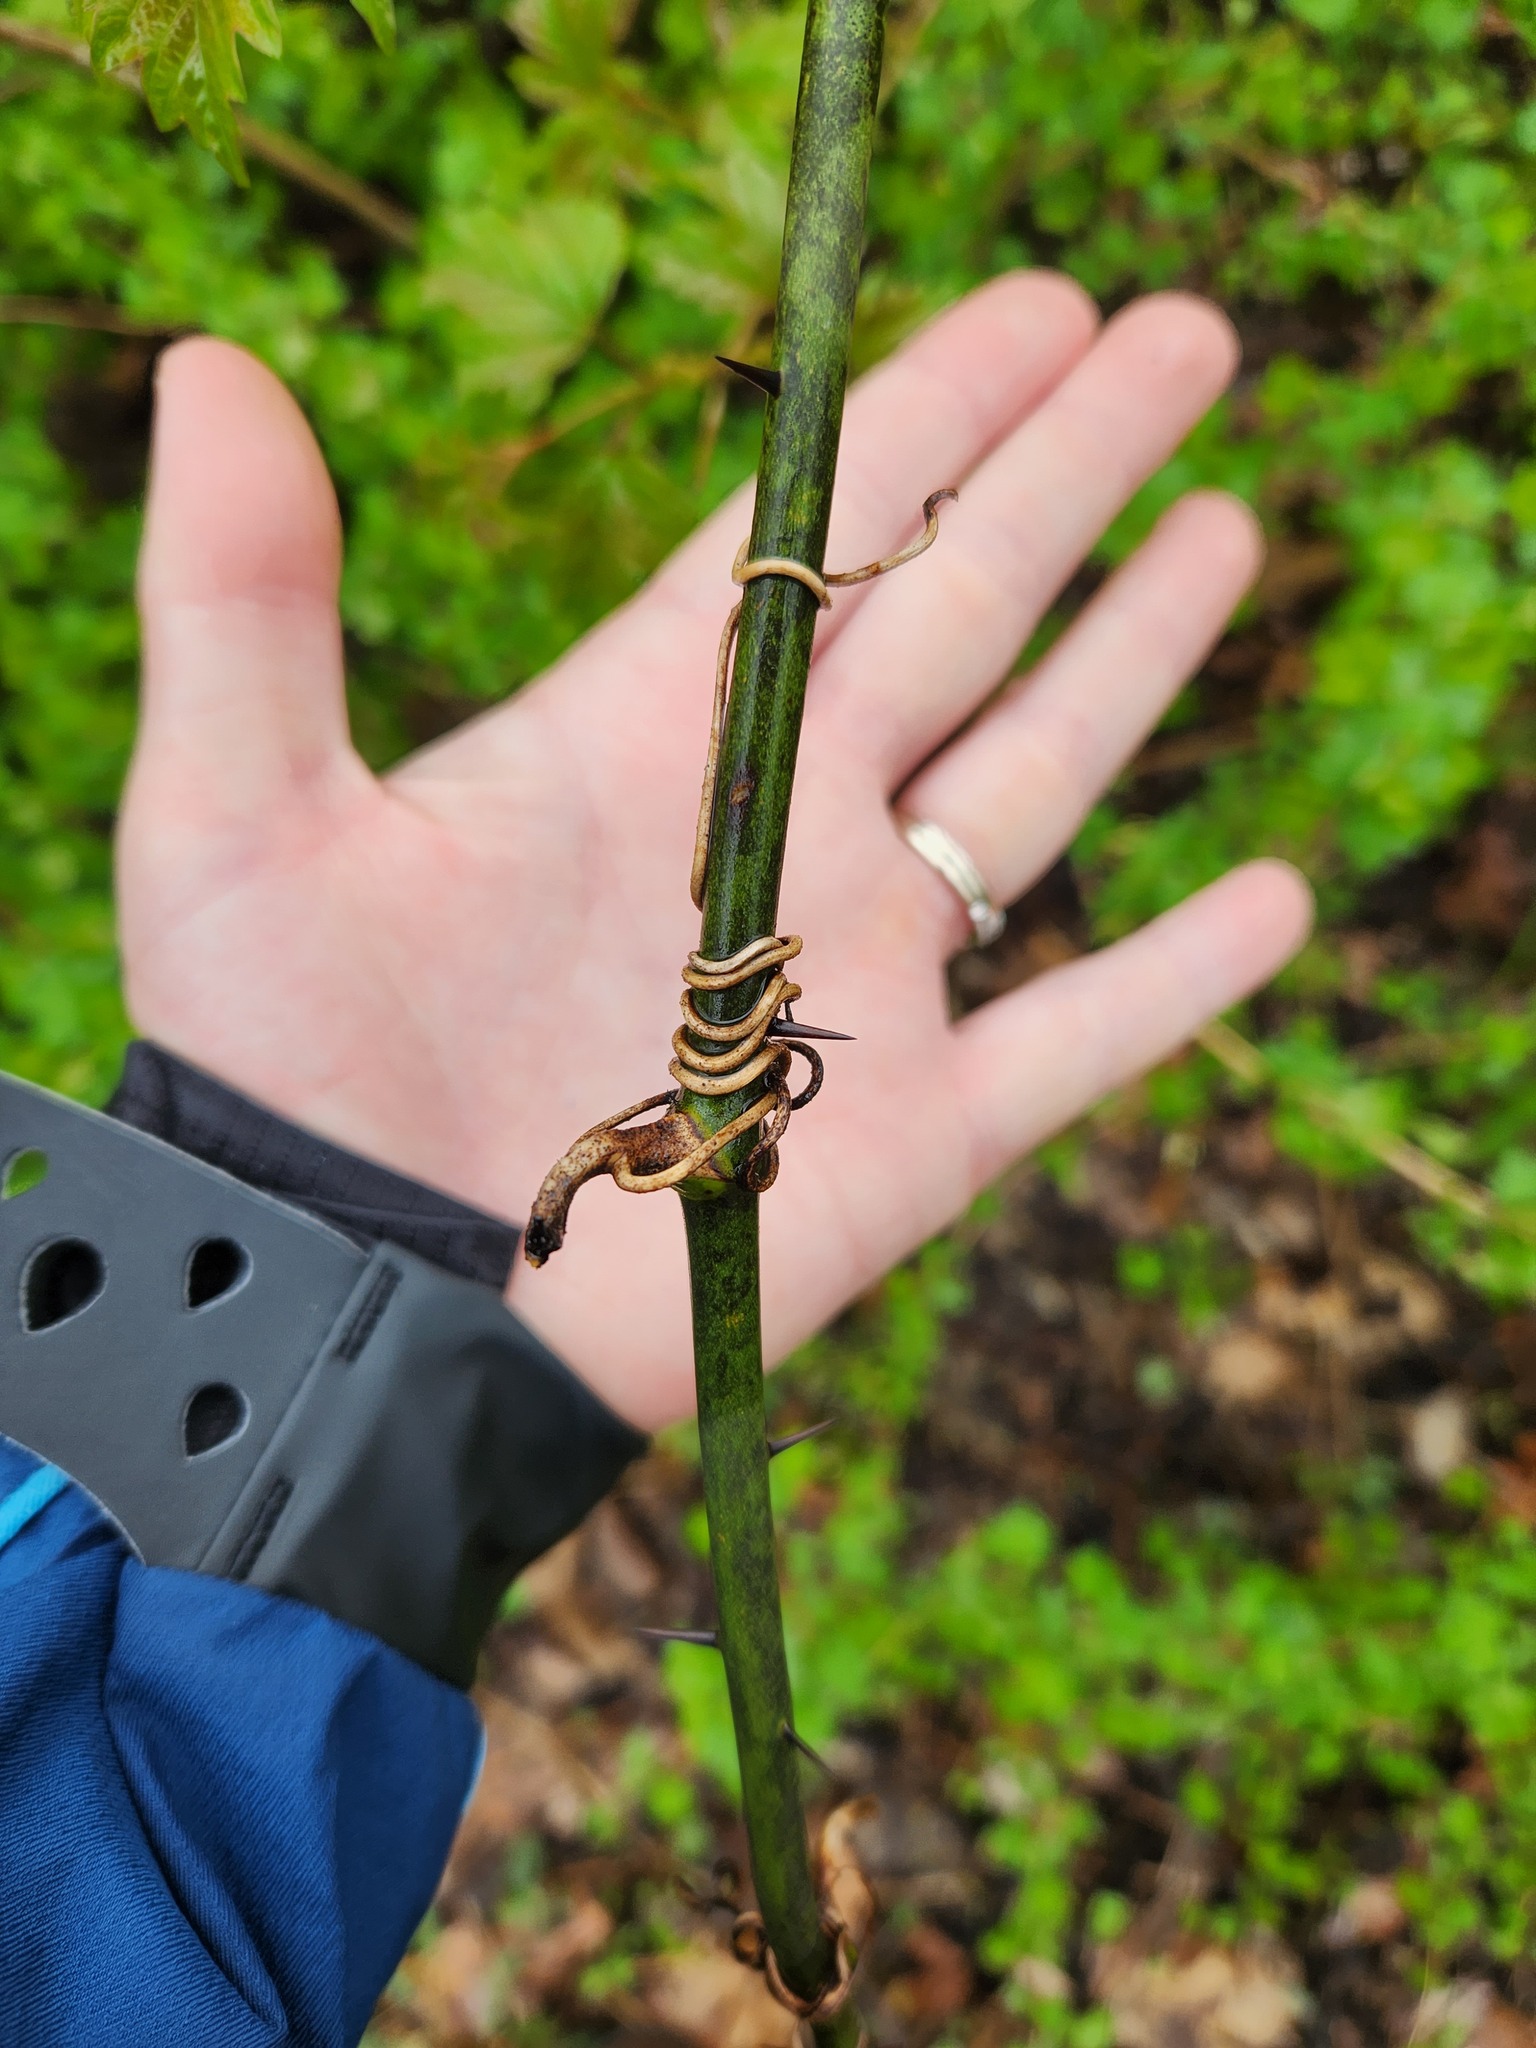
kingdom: Plantae
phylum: Tracheophyta
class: Liliopsida
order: Liliales
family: Smilacaceae
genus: Smilax
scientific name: Smilax tamnoides
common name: Hellfetter
